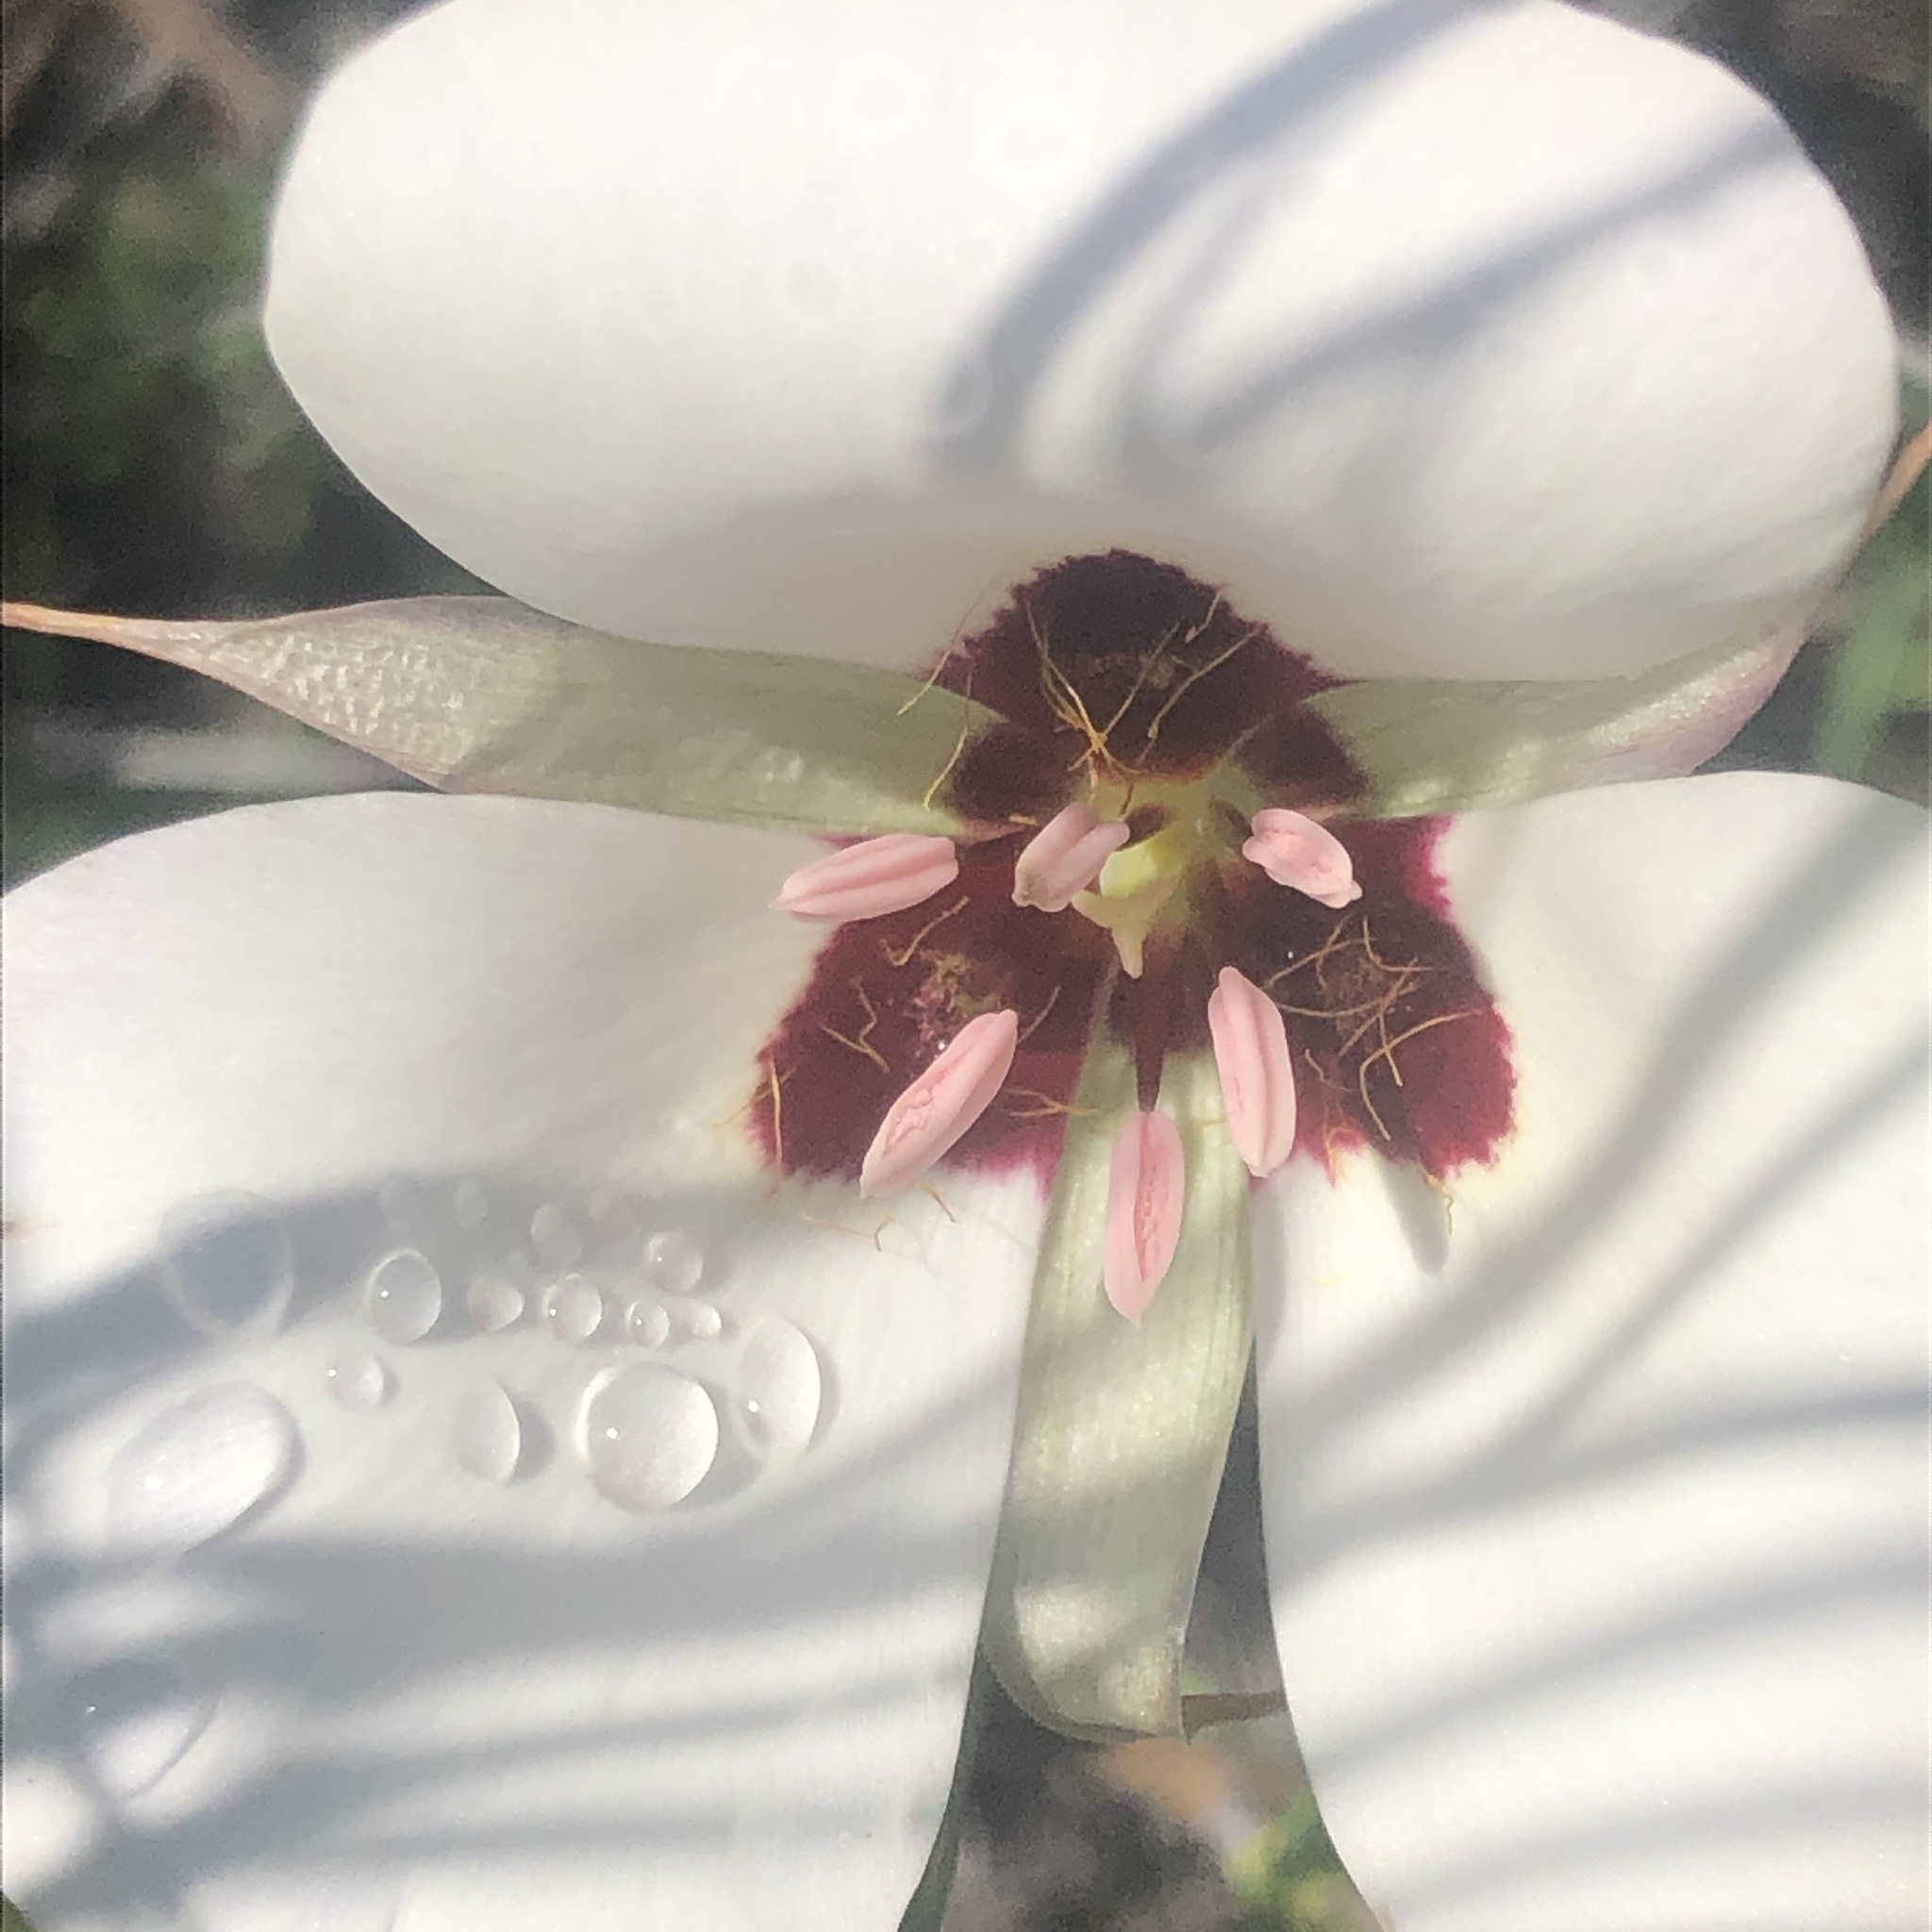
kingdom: Plantae
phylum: Tracheophyta
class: Liliopsida
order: Liliales
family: Liliaceae
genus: Calochortus
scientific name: Calochortus catalinae
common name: Catalina mariposa-lily
